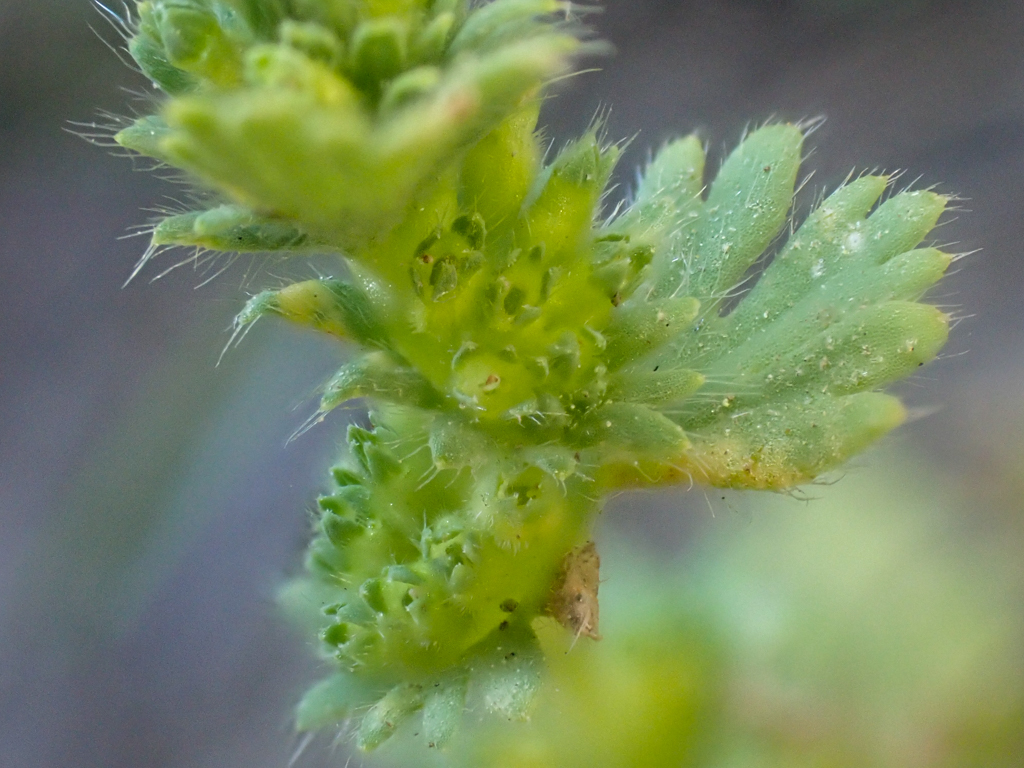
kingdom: Plantae
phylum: Tracheophyta
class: Magnoliopsida
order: Rosales
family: Rosaceae
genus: Aphanes
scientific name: Aphanes arvensis
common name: Parsley-piert
